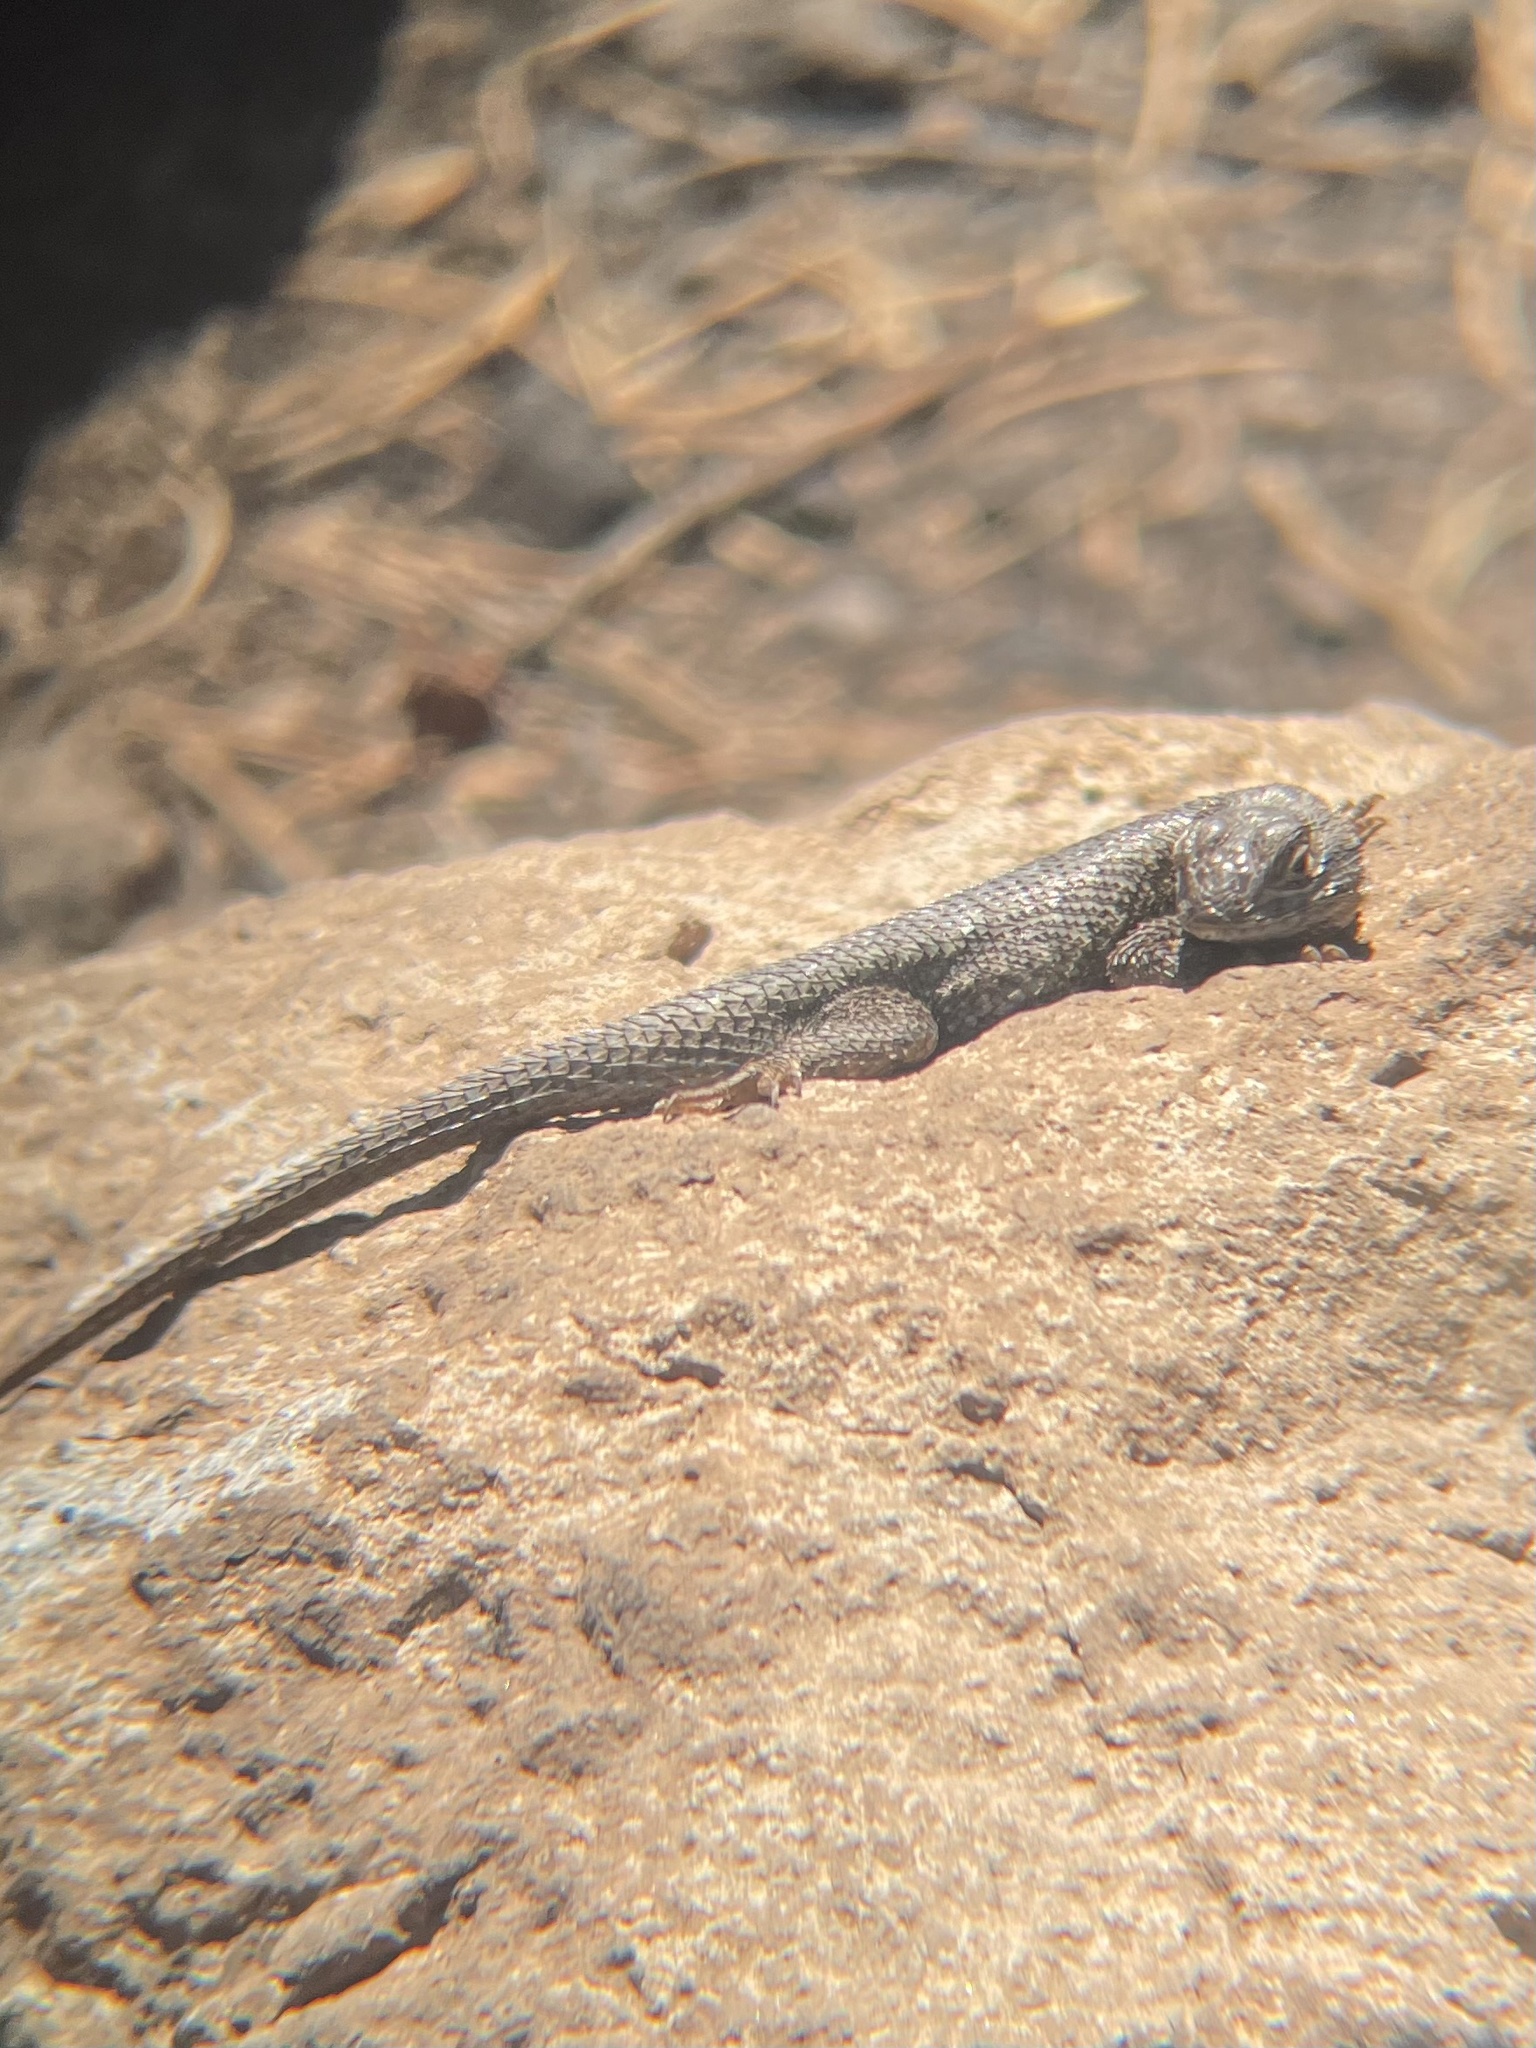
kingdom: Animalia
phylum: Chordata
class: Squamata
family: Phrynosomatidae
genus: Sceloporus
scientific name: Sceloporus occidentalis
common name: Western fence lizard
